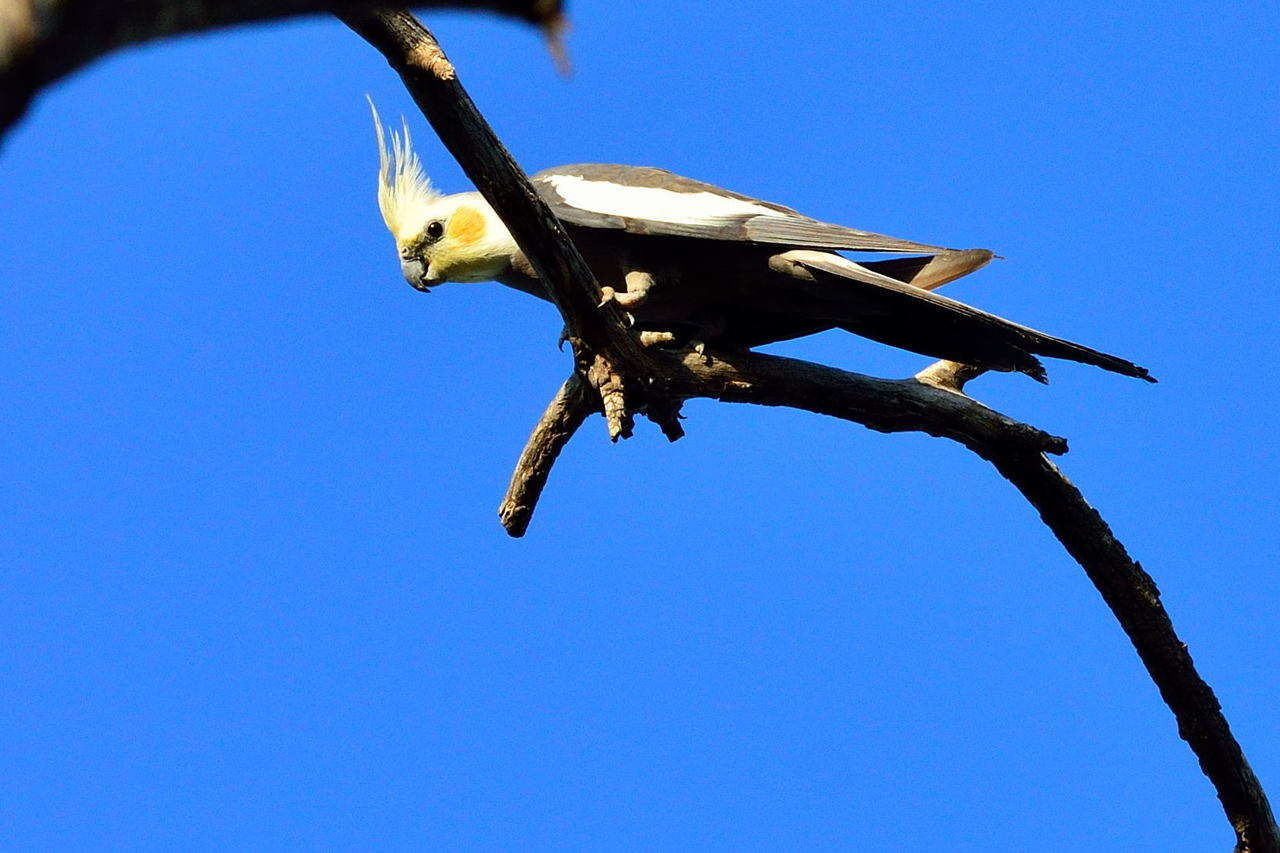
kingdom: Animalia
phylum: Chordata
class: Aves
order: Psittaciformes
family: Psittacidae
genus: Nymphicus
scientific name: Nymphicus hollandicus
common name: Cockatiel
